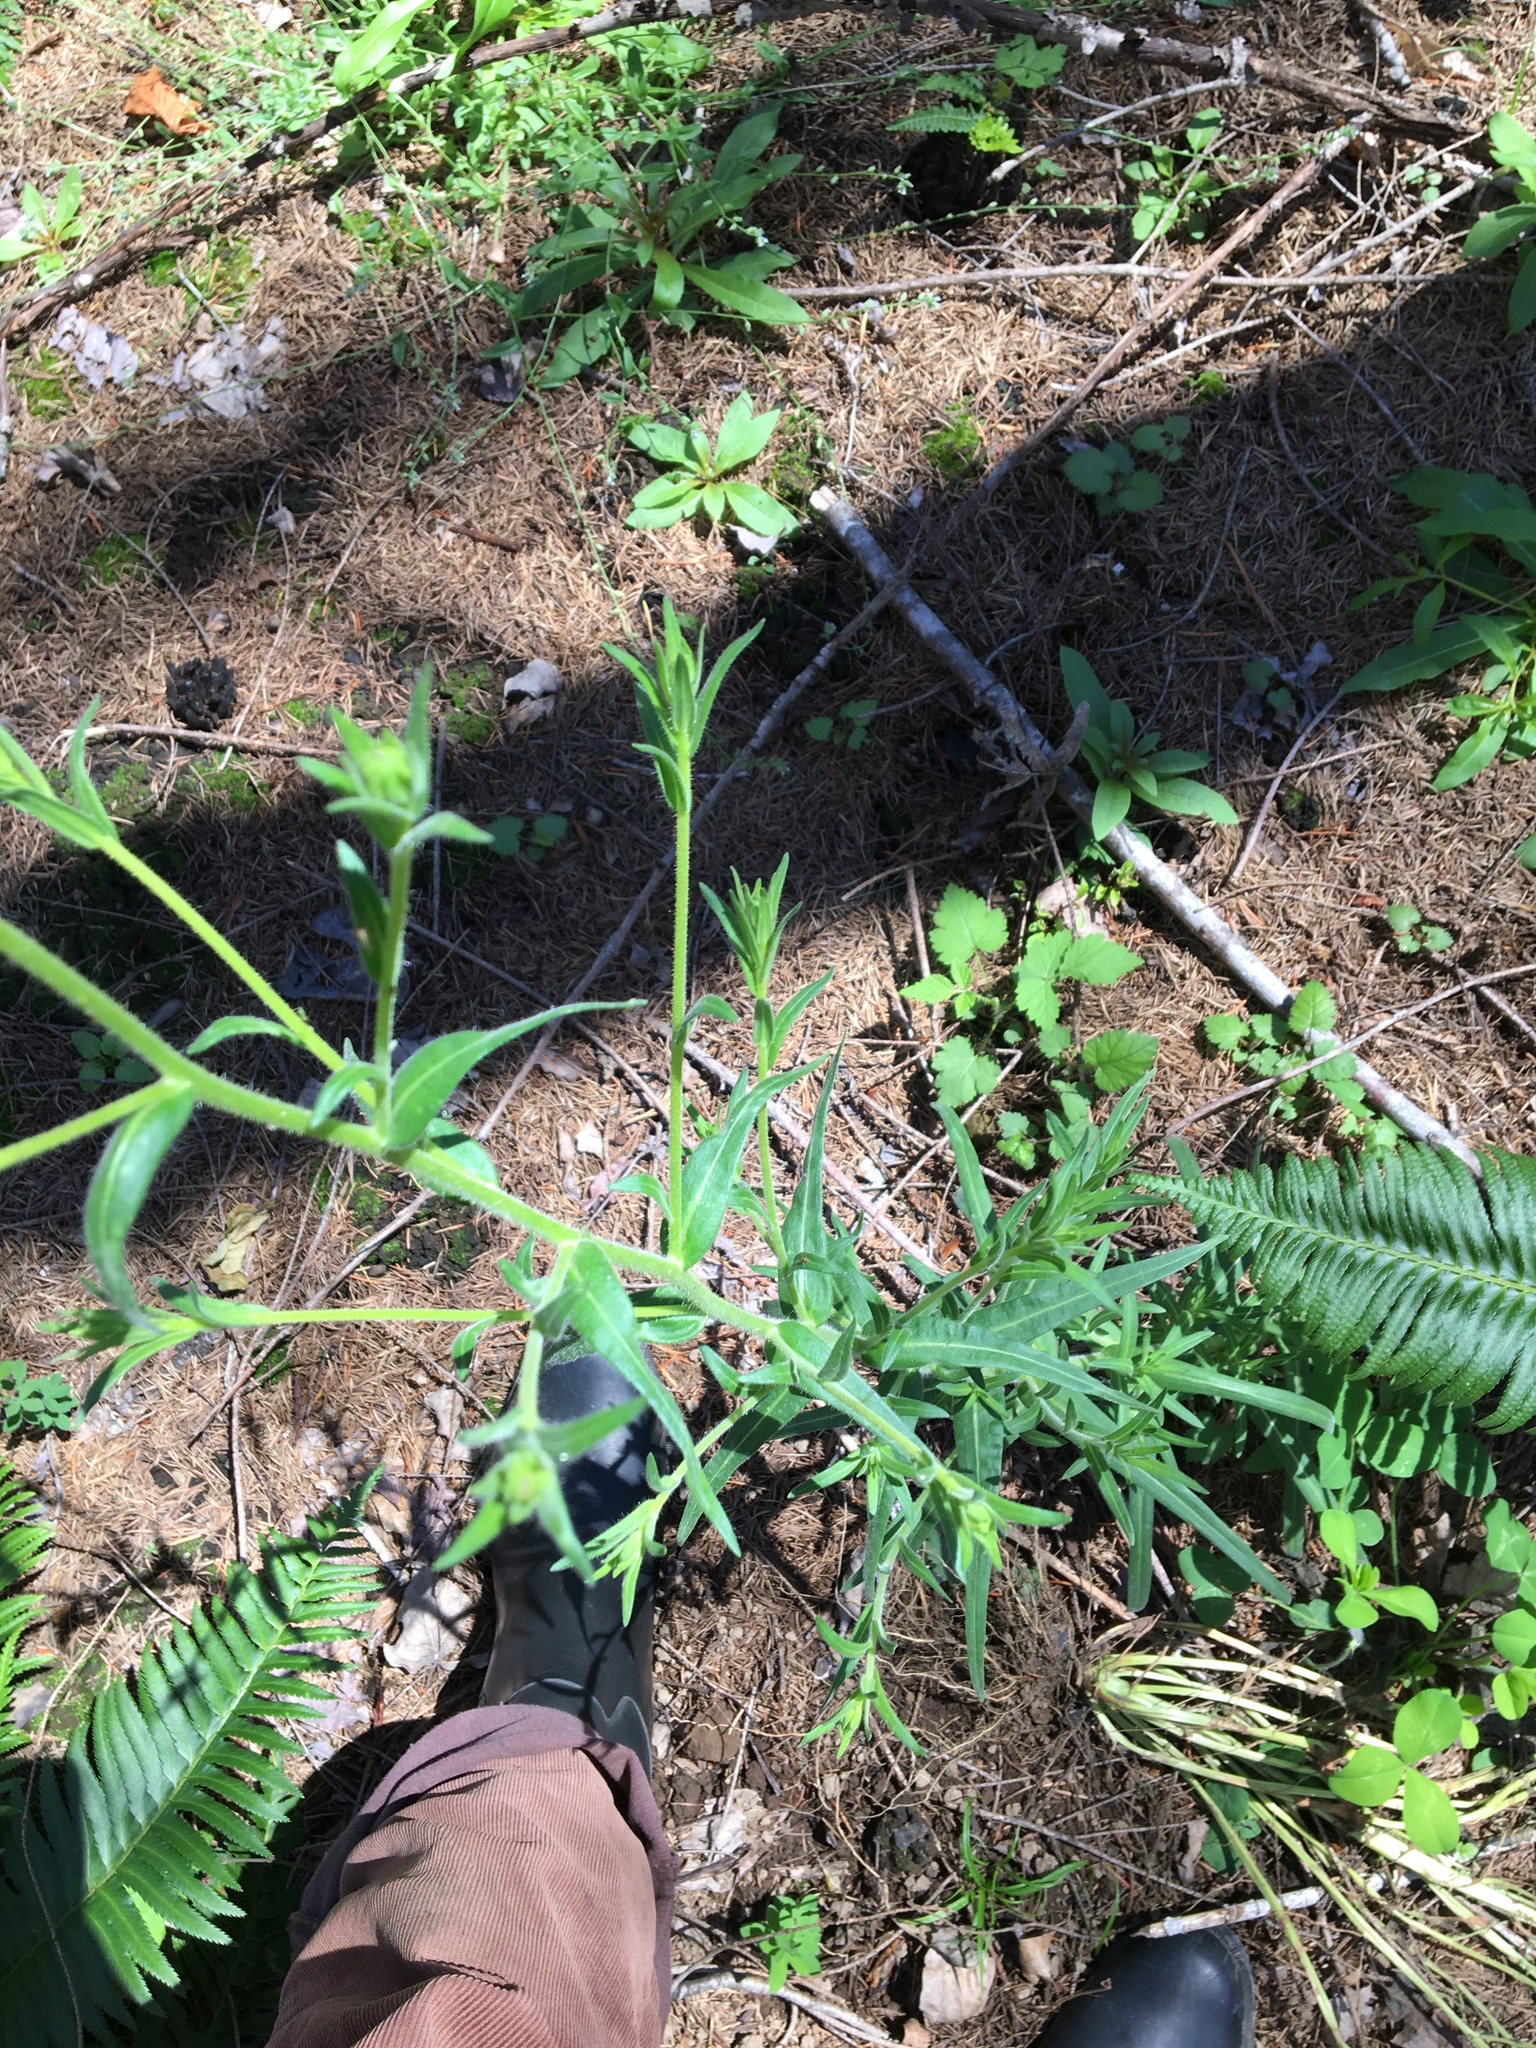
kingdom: Plantae
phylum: Tracheophyta
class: Magnoliopsida
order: Asterales
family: Asteraceae
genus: Anisocarpus
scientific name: Anisocarpus madioides
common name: Woodland madia
